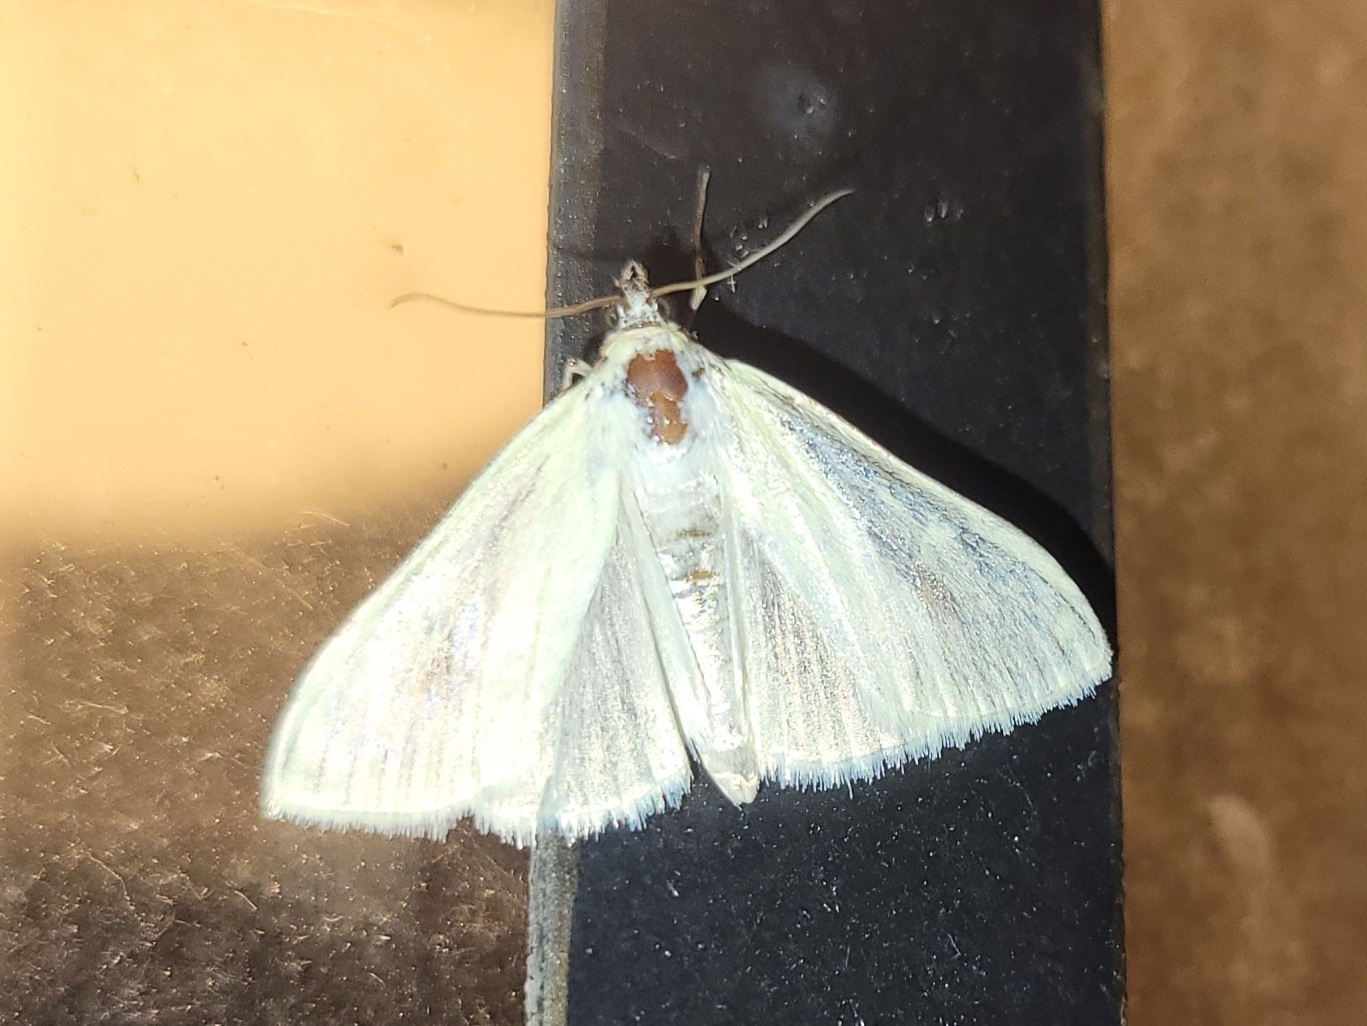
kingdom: Animalia
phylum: Arthropoda
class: Insecta
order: Lepidoptera
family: Crambidae
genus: Sitochroa
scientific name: Sitochroa palealis
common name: Greenish-yellow sitochroa moth
